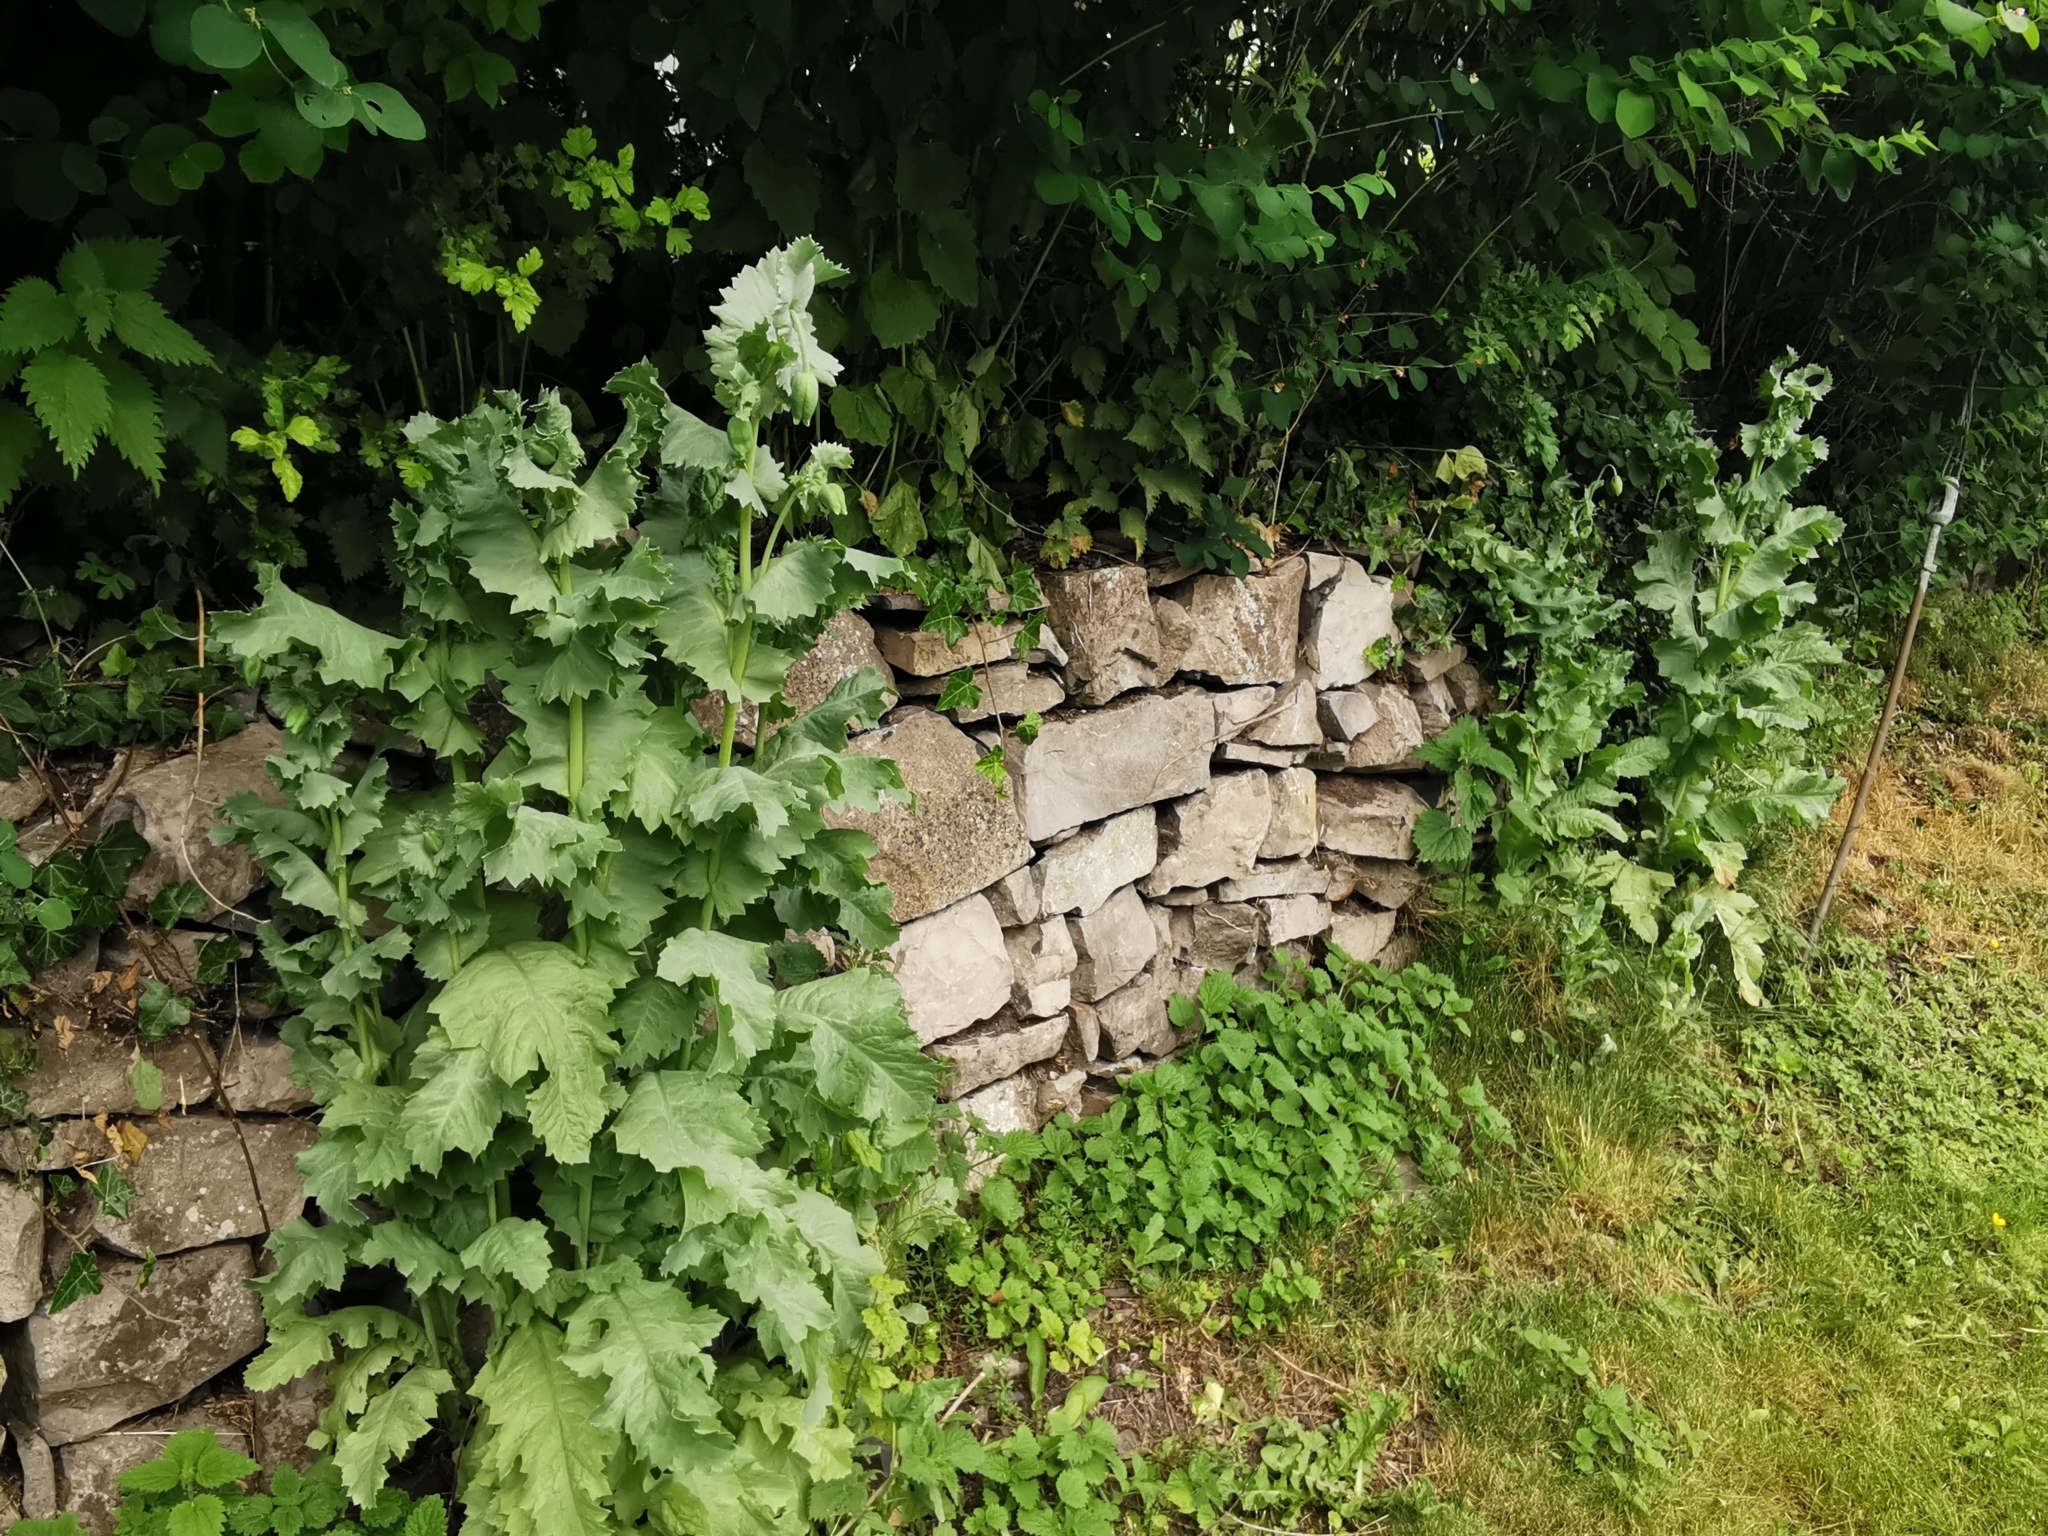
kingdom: Plantae
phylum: Tracheophyta
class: Magnoliopsida
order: Ranunculales
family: Papaveraceae
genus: Papaver
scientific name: Papaver somniferum
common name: Opium poppy
